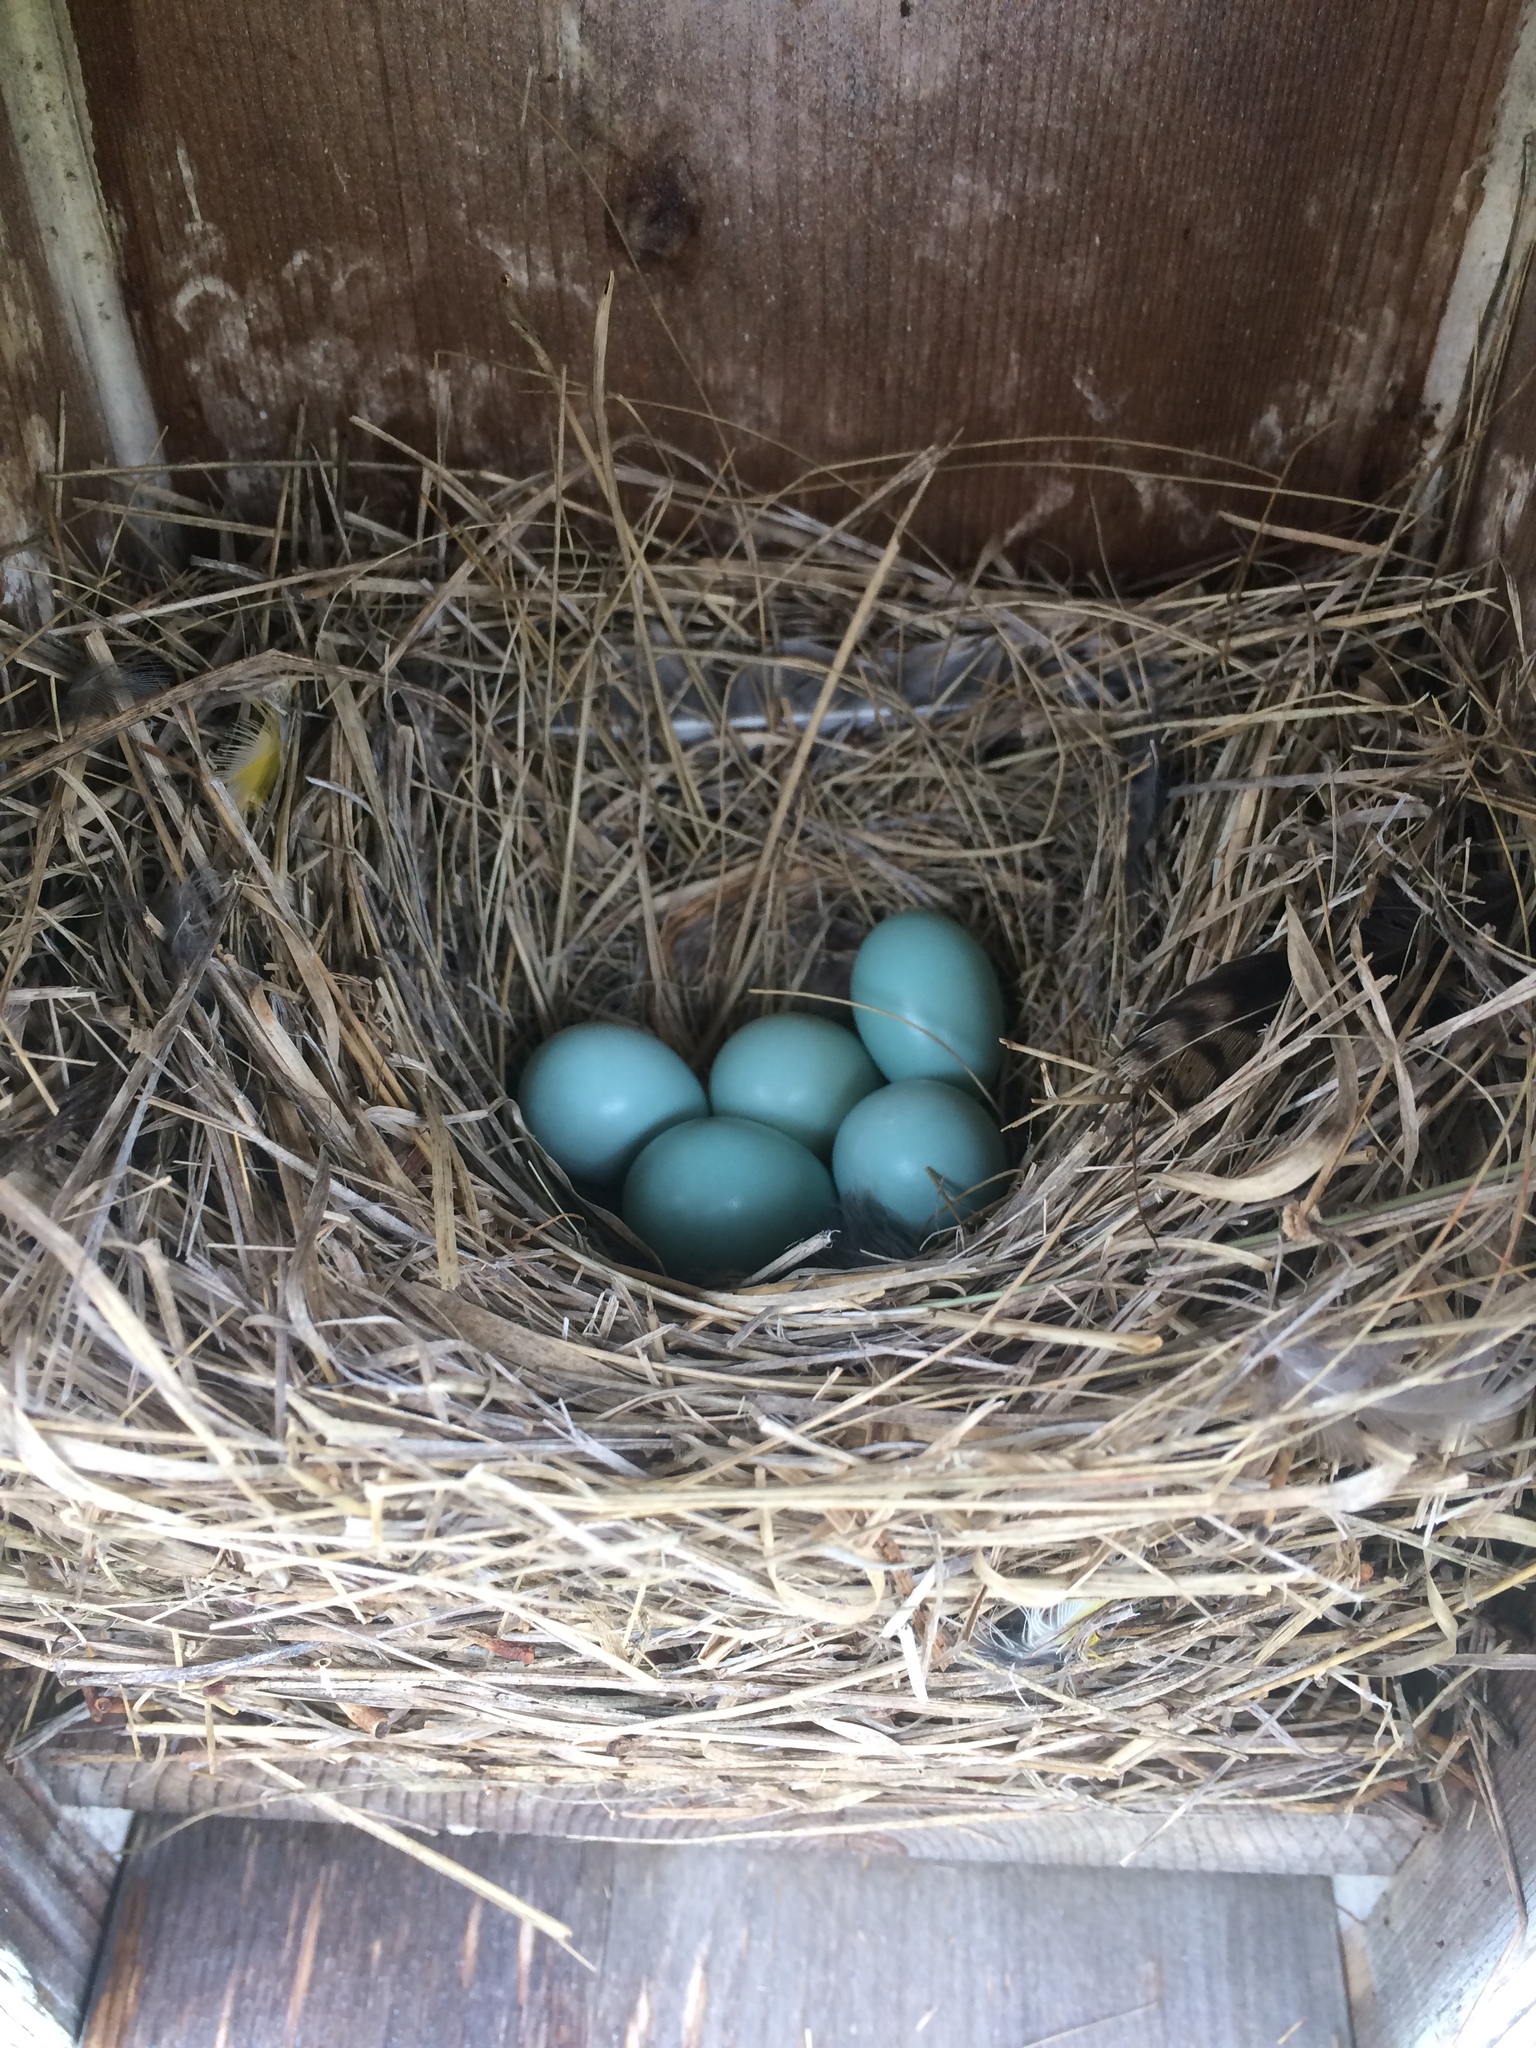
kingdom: Animalia
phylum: Chordata
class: Aves
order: Passeriformes
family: Turdidae
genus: Sialia
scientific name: Sialia sialis
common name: Eastern bluebird
